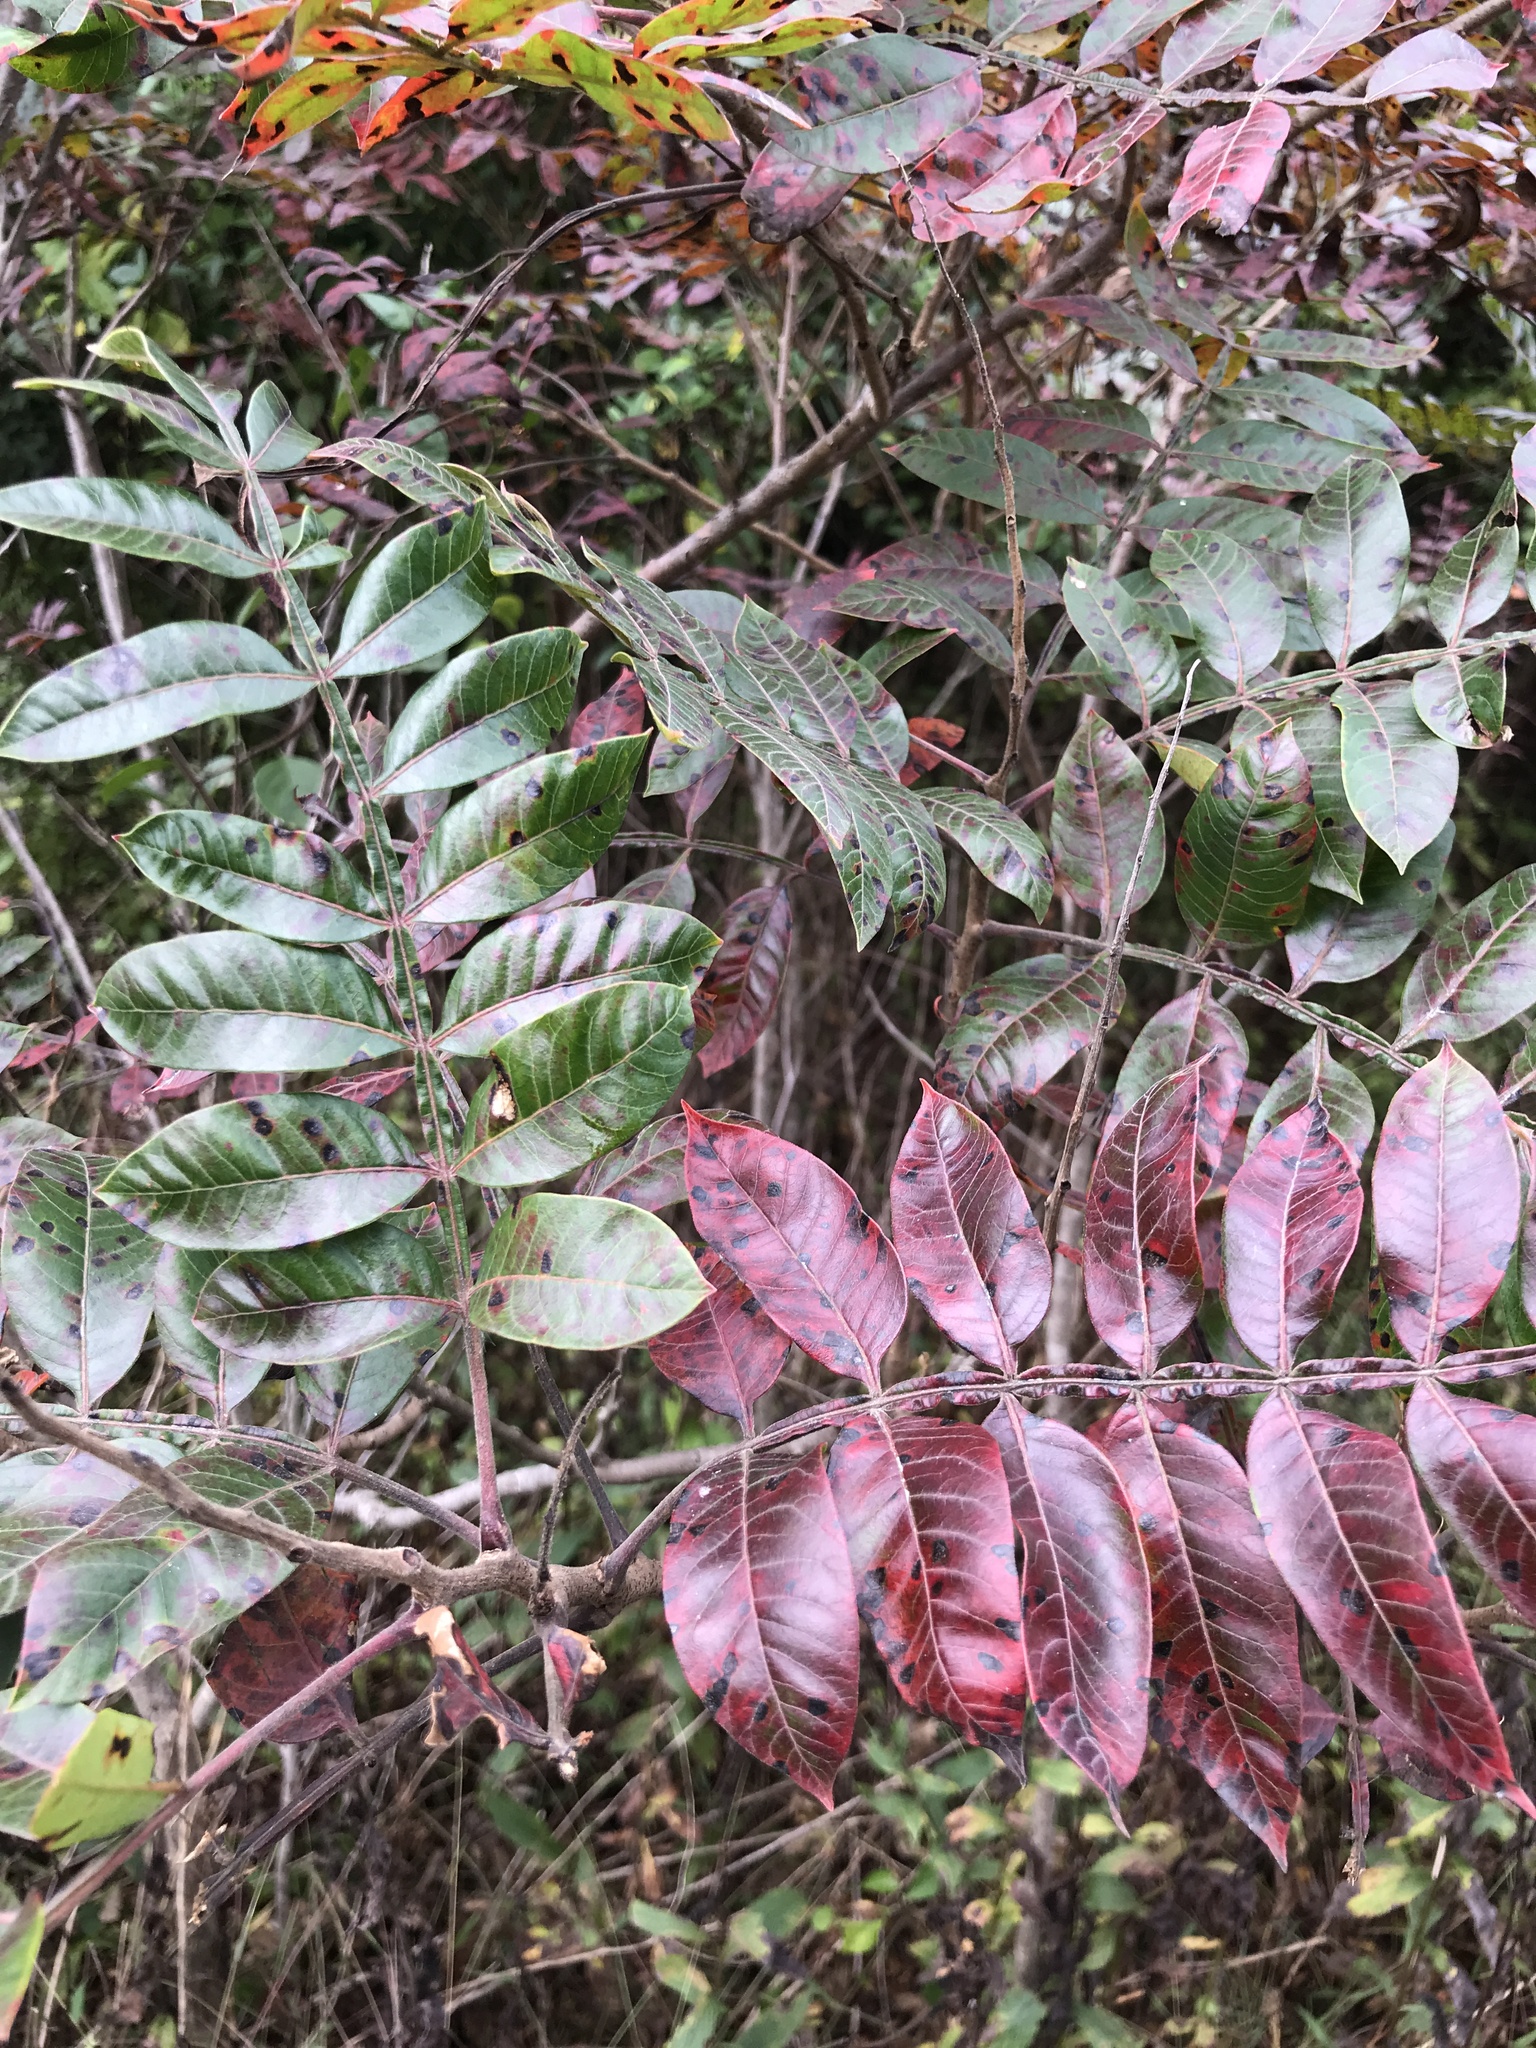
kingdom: Plantae
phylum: Tracheophyta
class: Magnoliopsida
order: Sapindales
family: Anacardiaceae
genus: Rhus
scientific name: Rhus copallina
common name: Shining sumac
